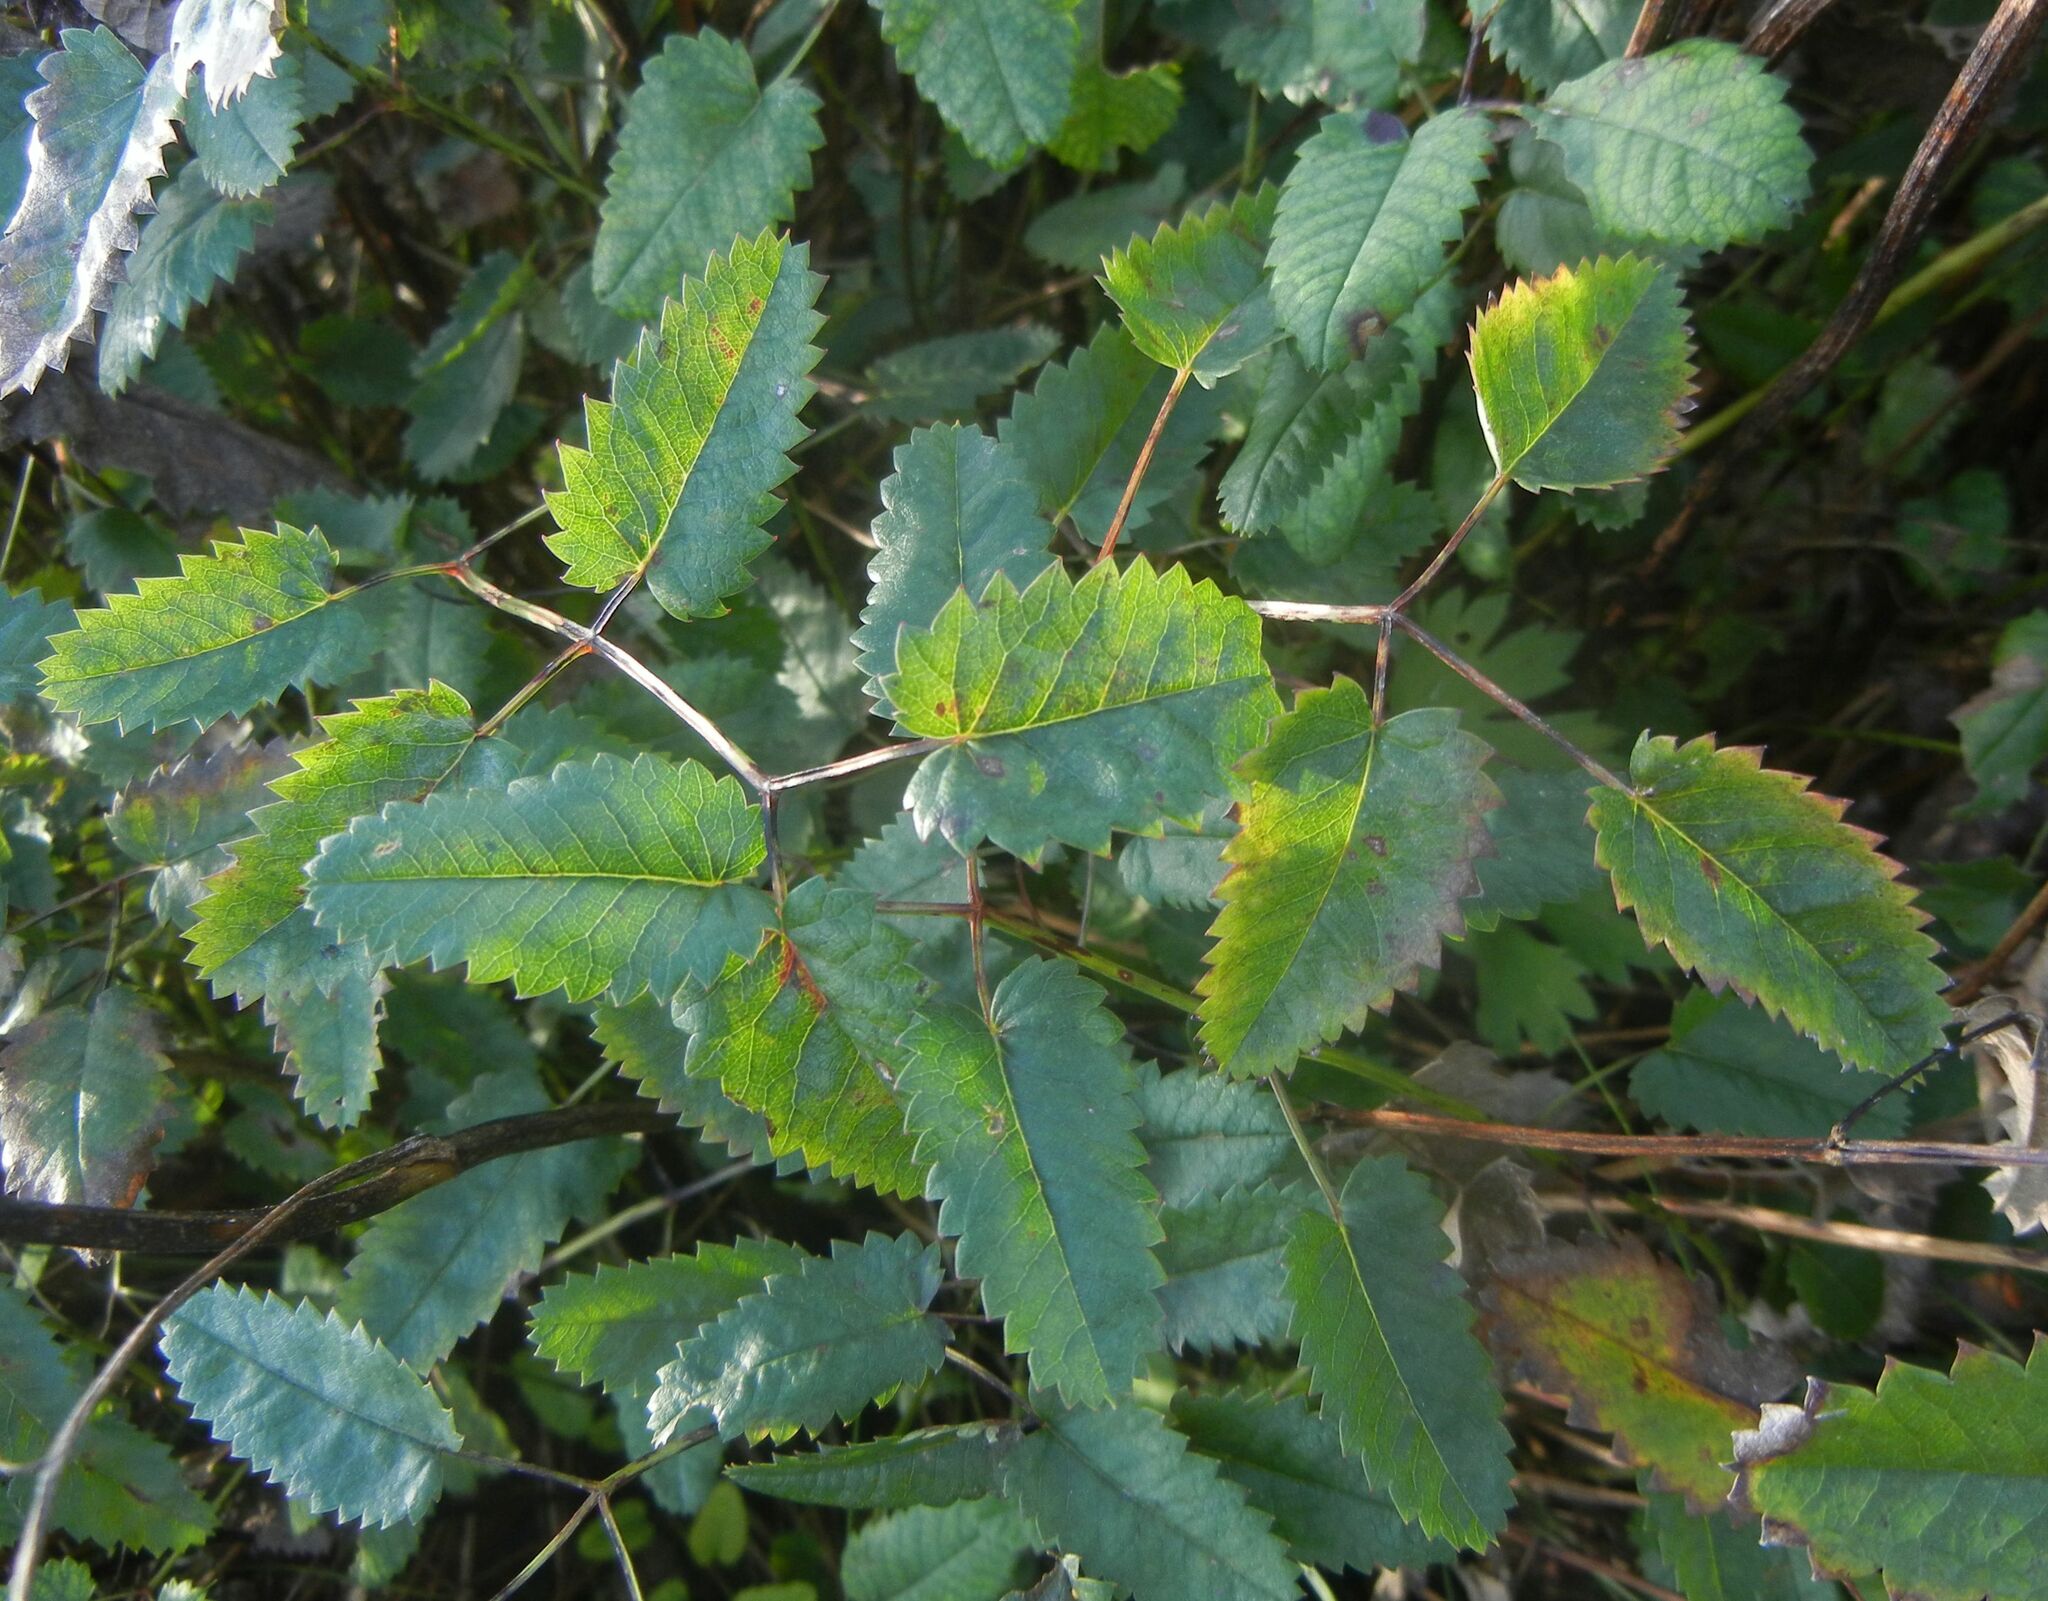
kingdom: Plantae
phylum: Tracheophyta
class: Magnoliopsida
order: Rosales
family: Rosaceae
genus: Sanguisorba
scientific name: Sanguisorba officinalis
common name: Great burnet
